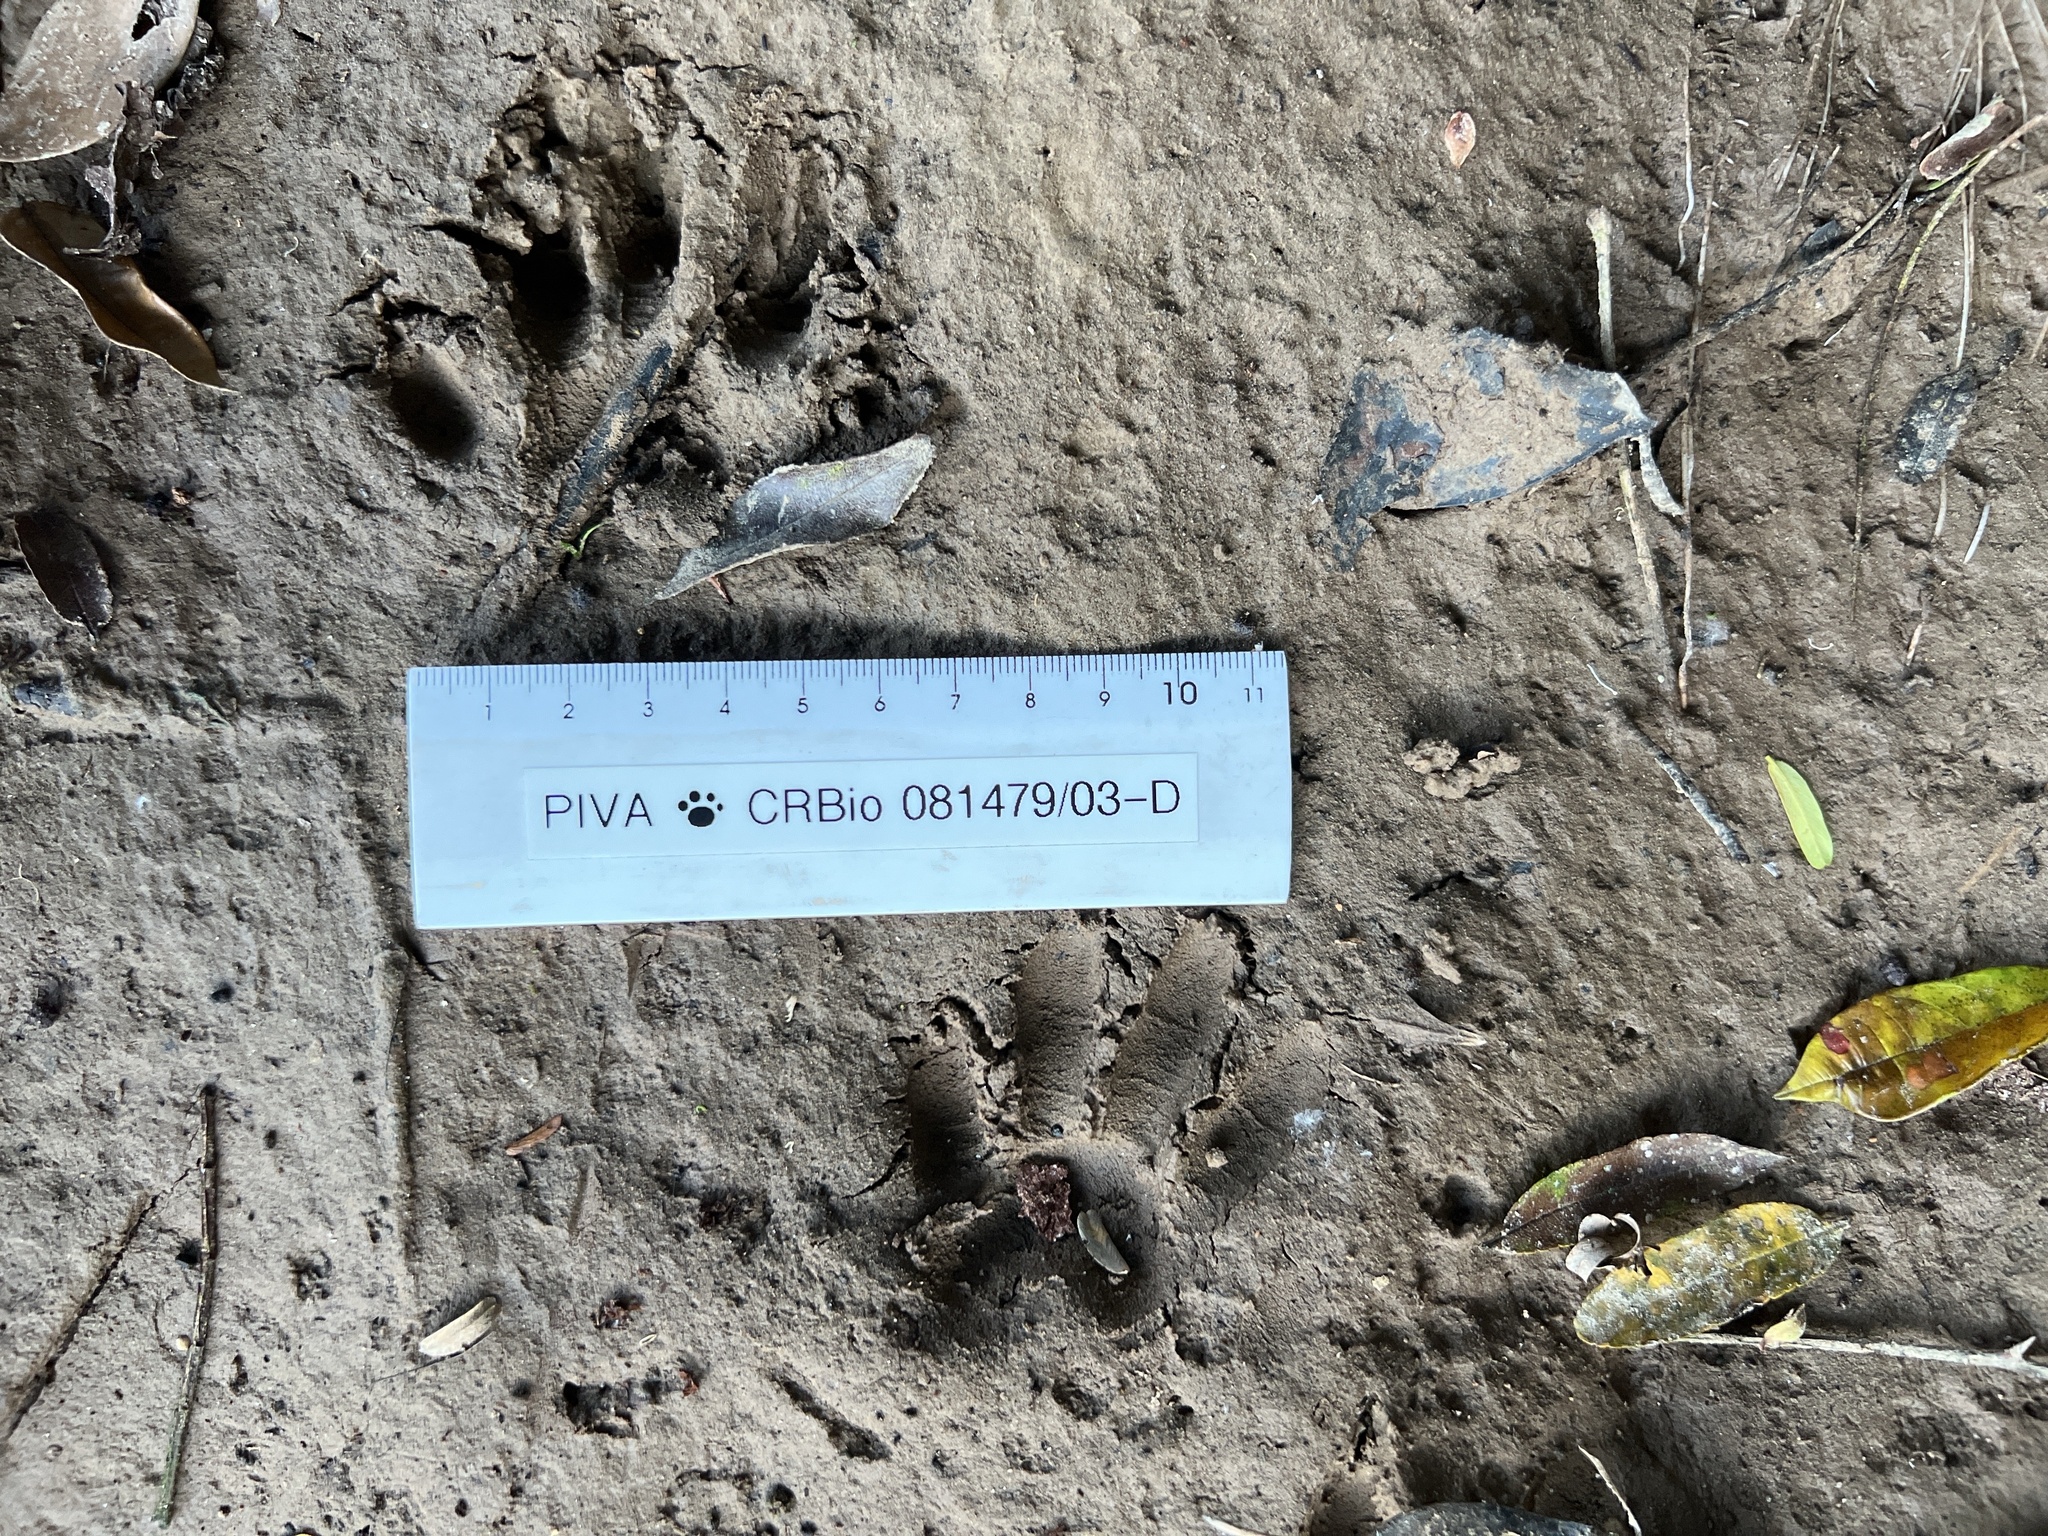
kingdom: Animalia
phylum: Chordata
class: Mammalia
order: Carnivora
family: Mustelidae
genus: Lontra
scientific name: Lontra longicaudis
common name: Neotropical otter
